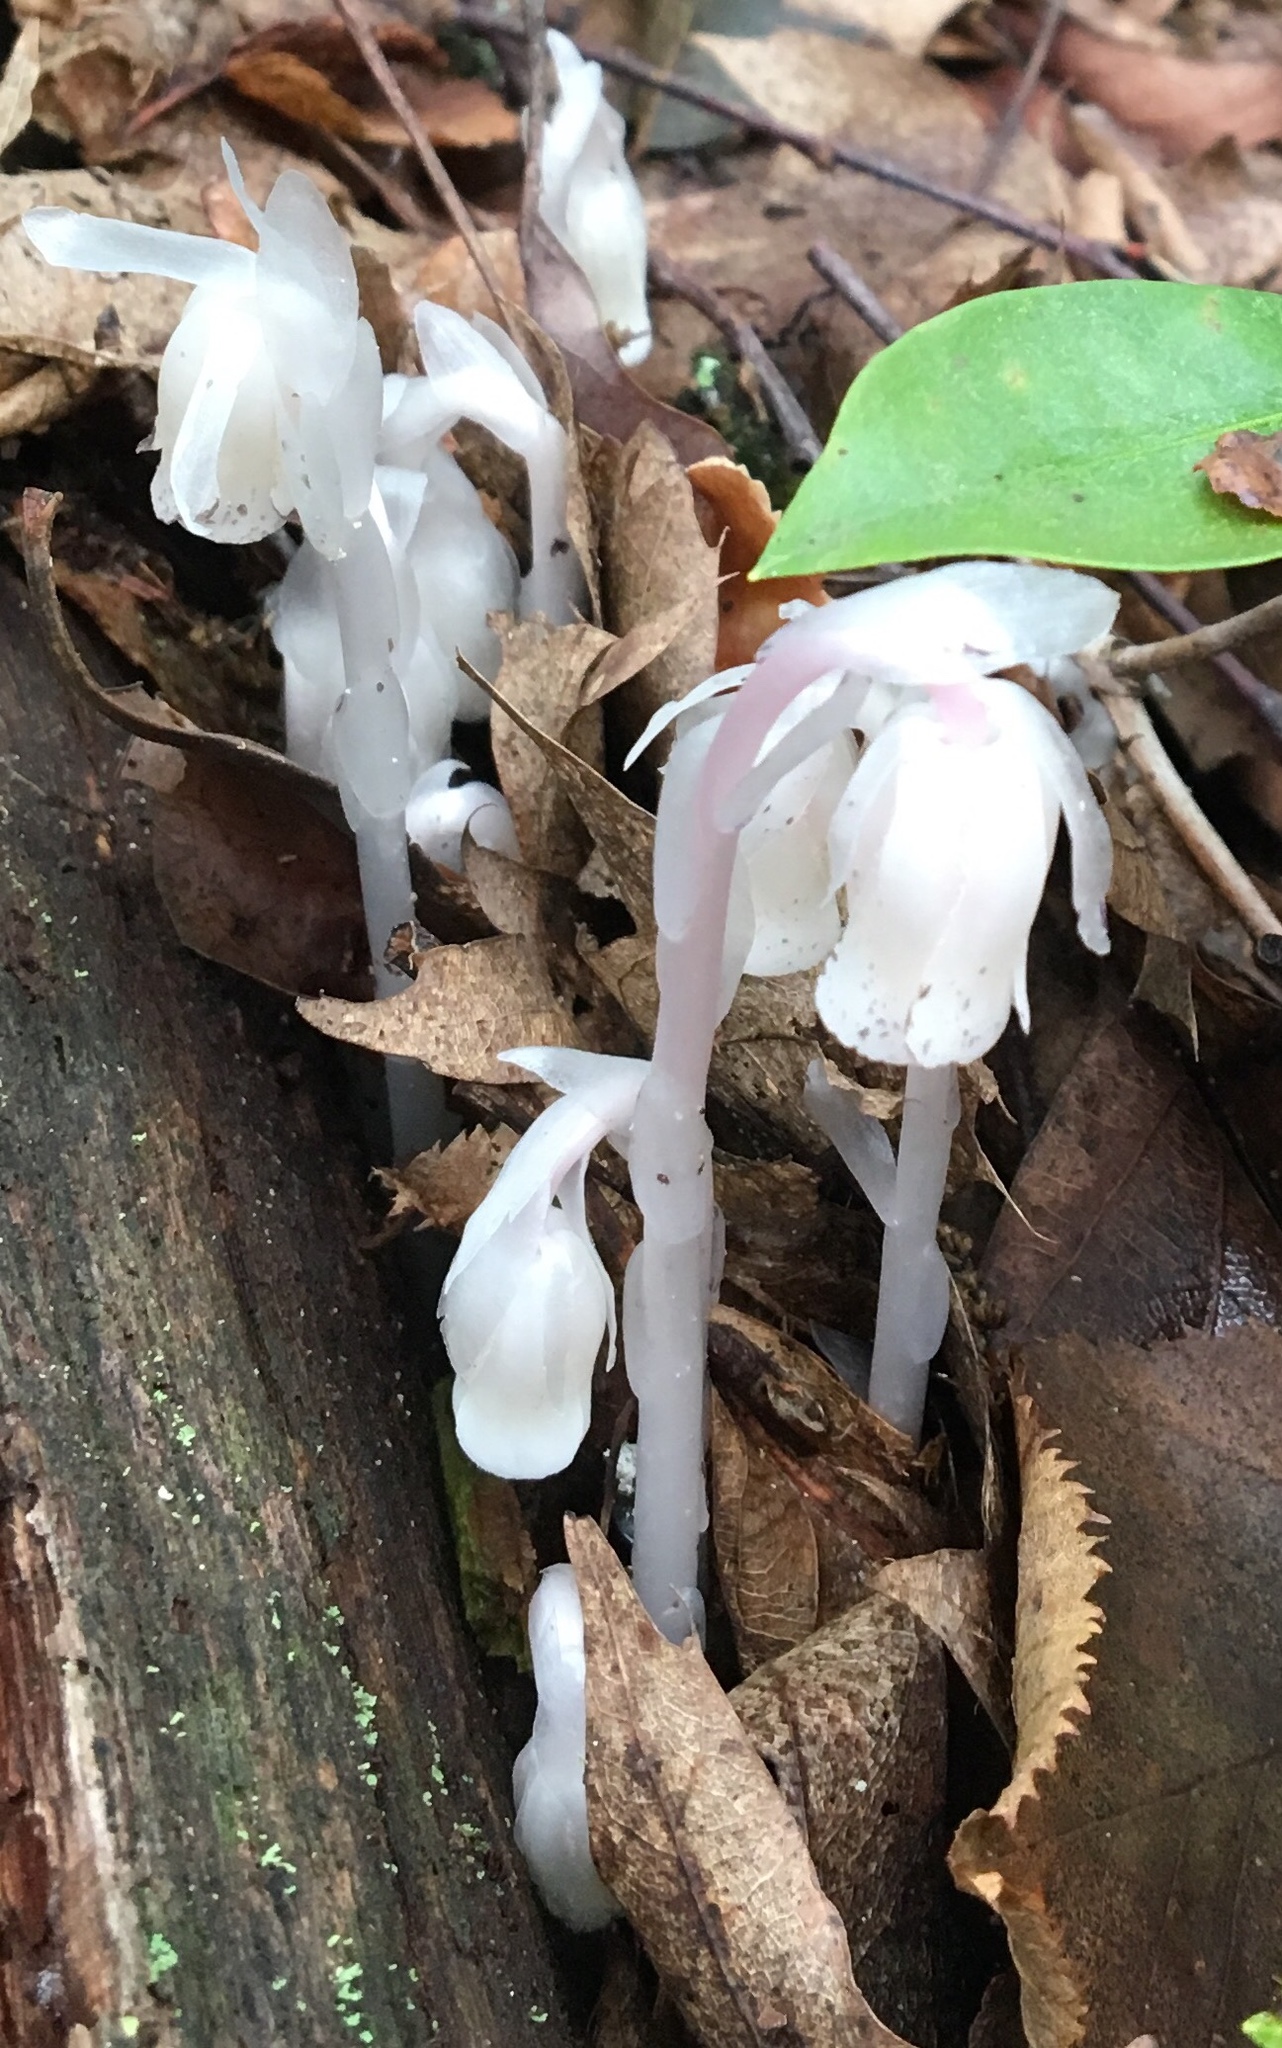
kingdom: Plantae
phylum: Tracheophyta
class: Magnoliopsida
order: Ericales
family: Ericaceae
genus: Monotropa
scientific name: Monotropa uniflora
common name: Convulsion root
